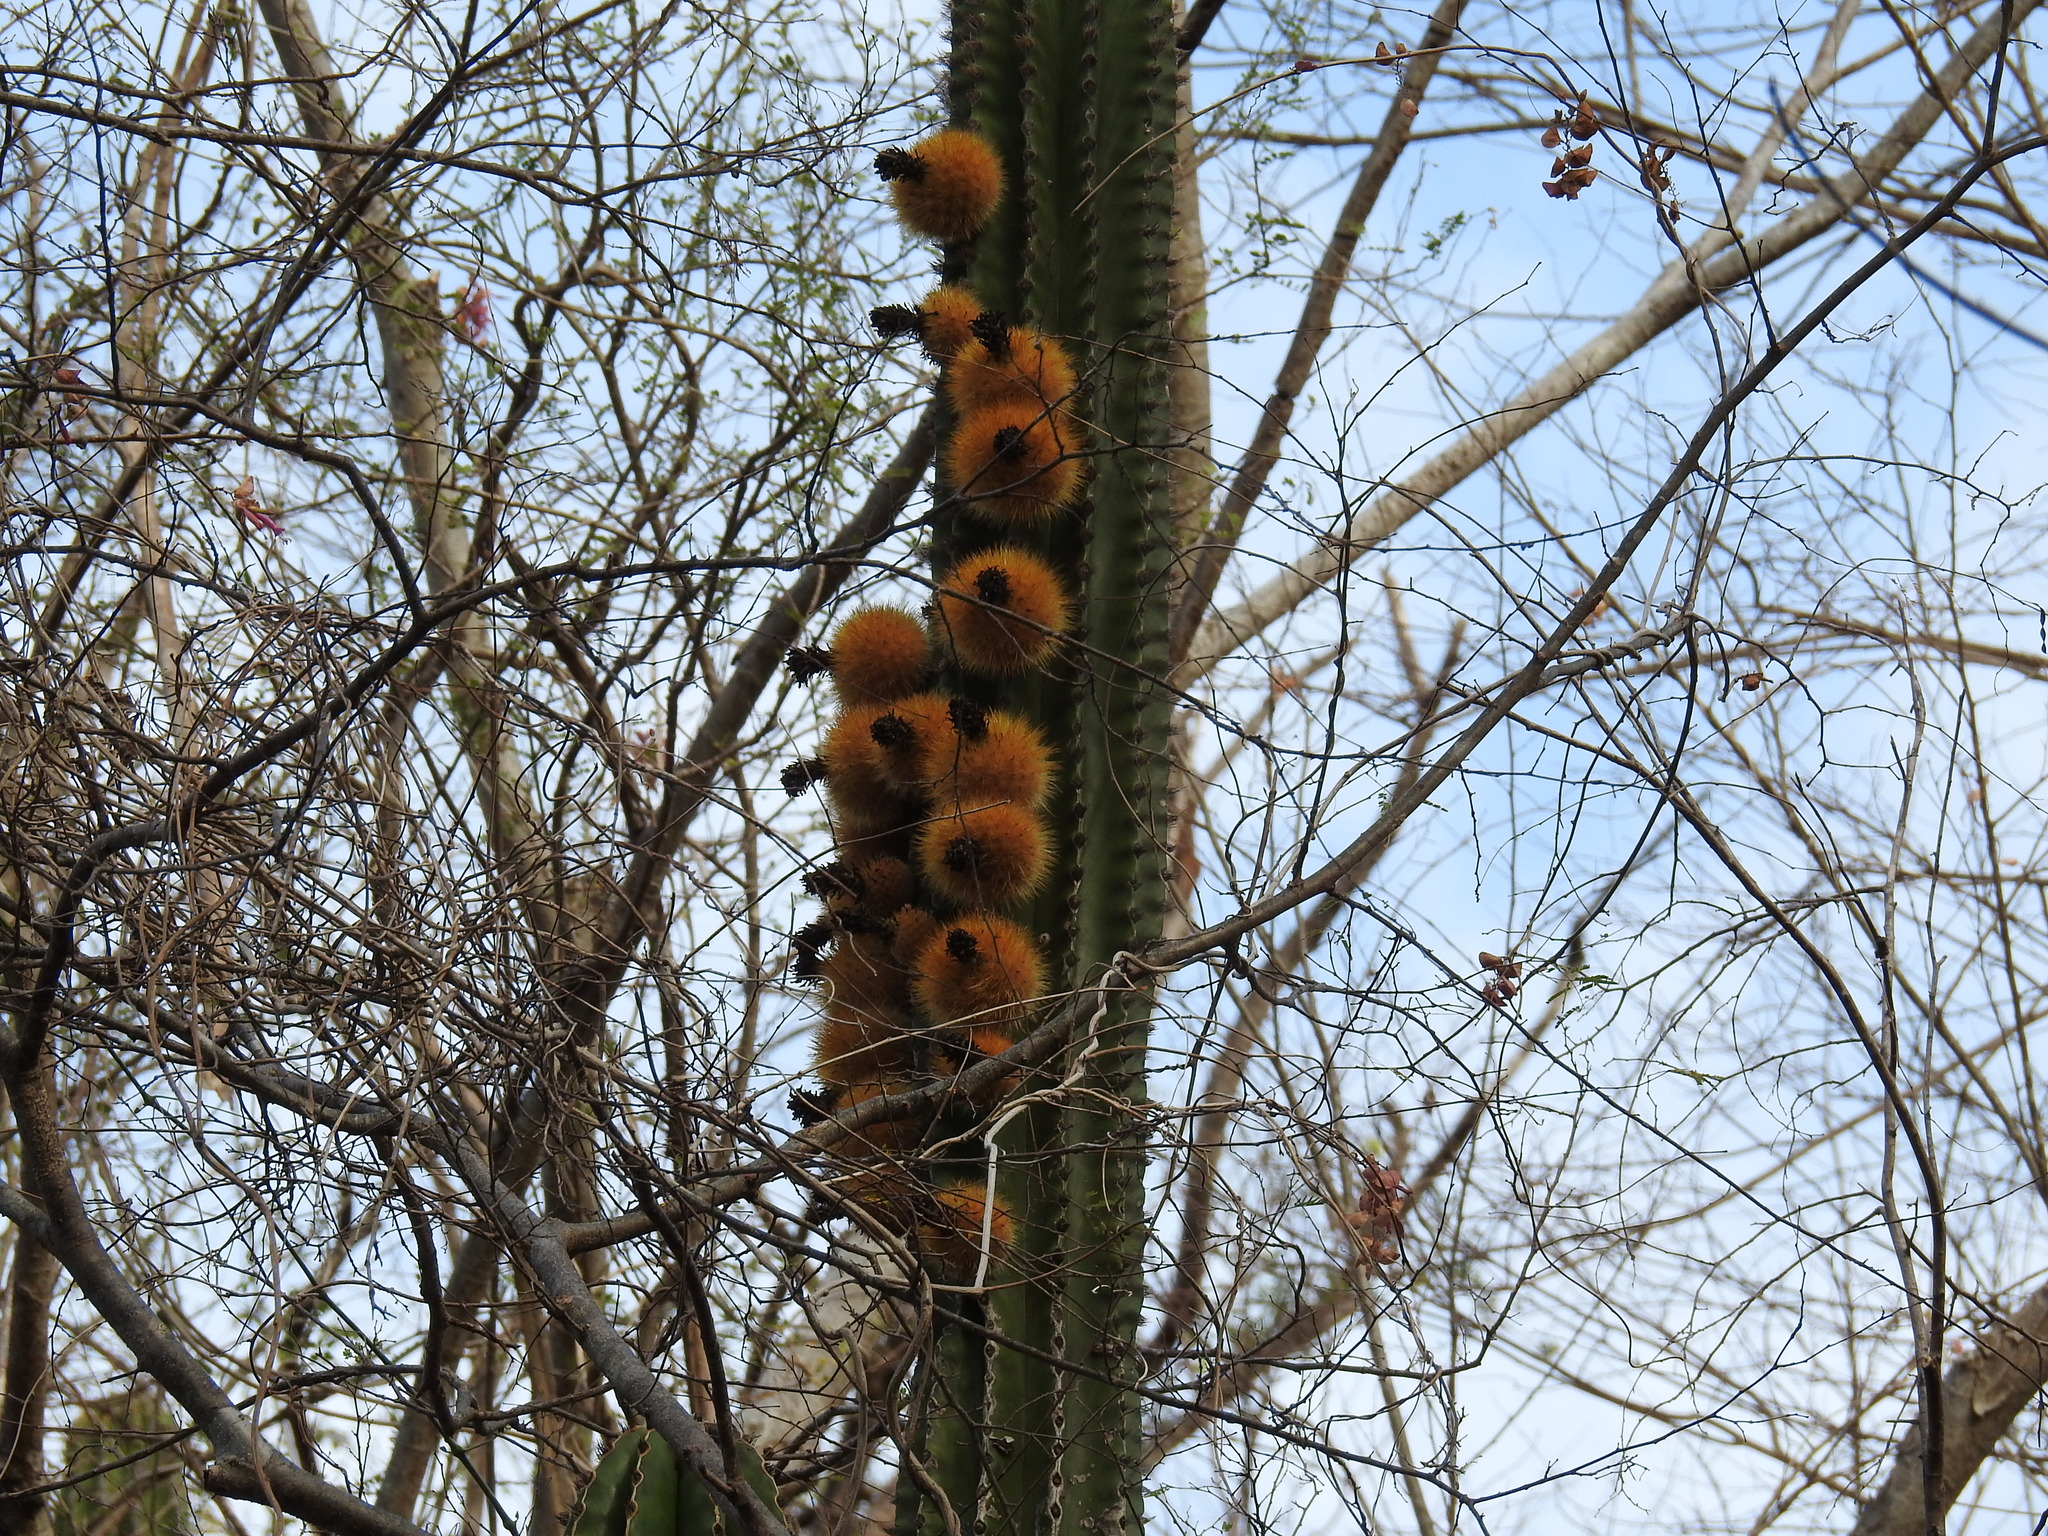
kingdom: Plantae
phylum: Tracheophyta
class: Magnoliopsida
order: Caryophyllales
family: Cactaceae
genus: Pachycereus
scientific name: Pachycereus pecten-aboriginum
